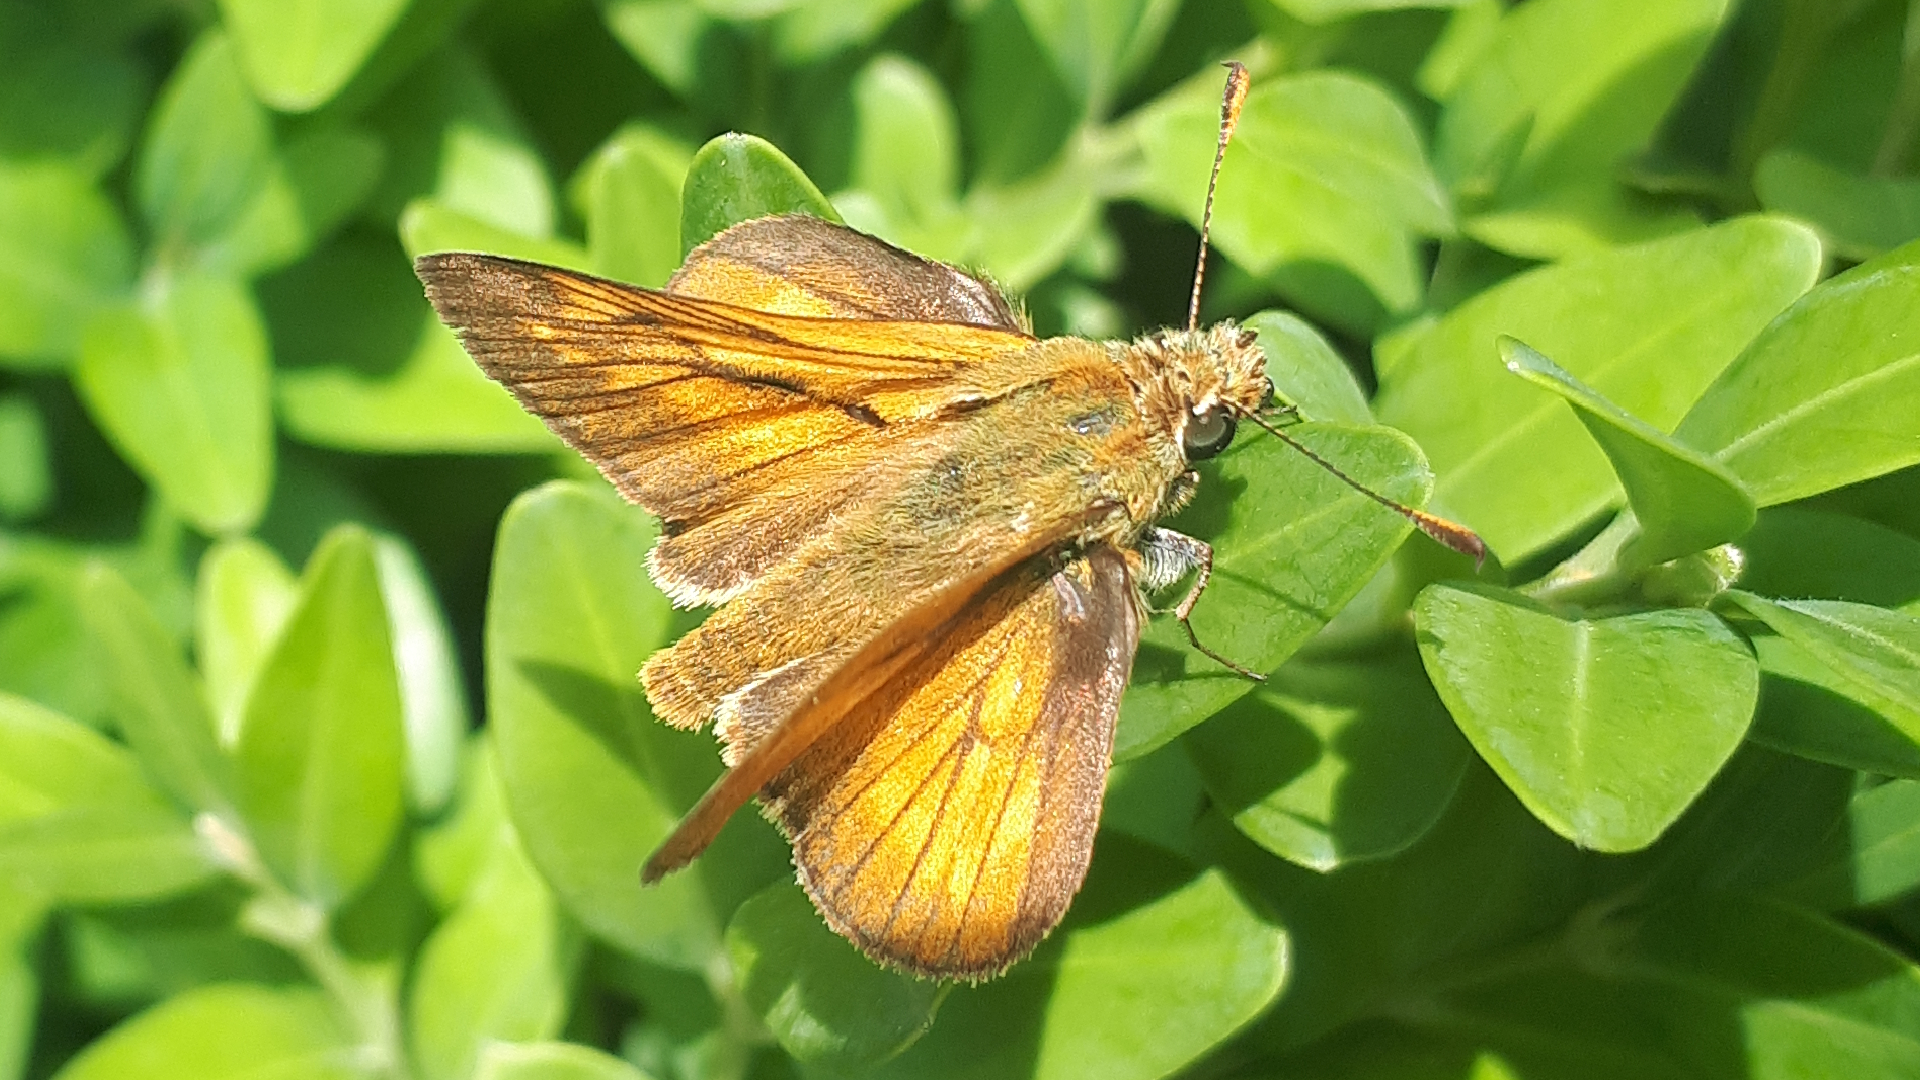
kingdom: Animalia
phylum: Arthropoda
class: Insecta
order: Lepidoptera
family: Hesperiidae
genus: Ochlodes
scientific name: Ochlodes venata
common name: Large skipper
